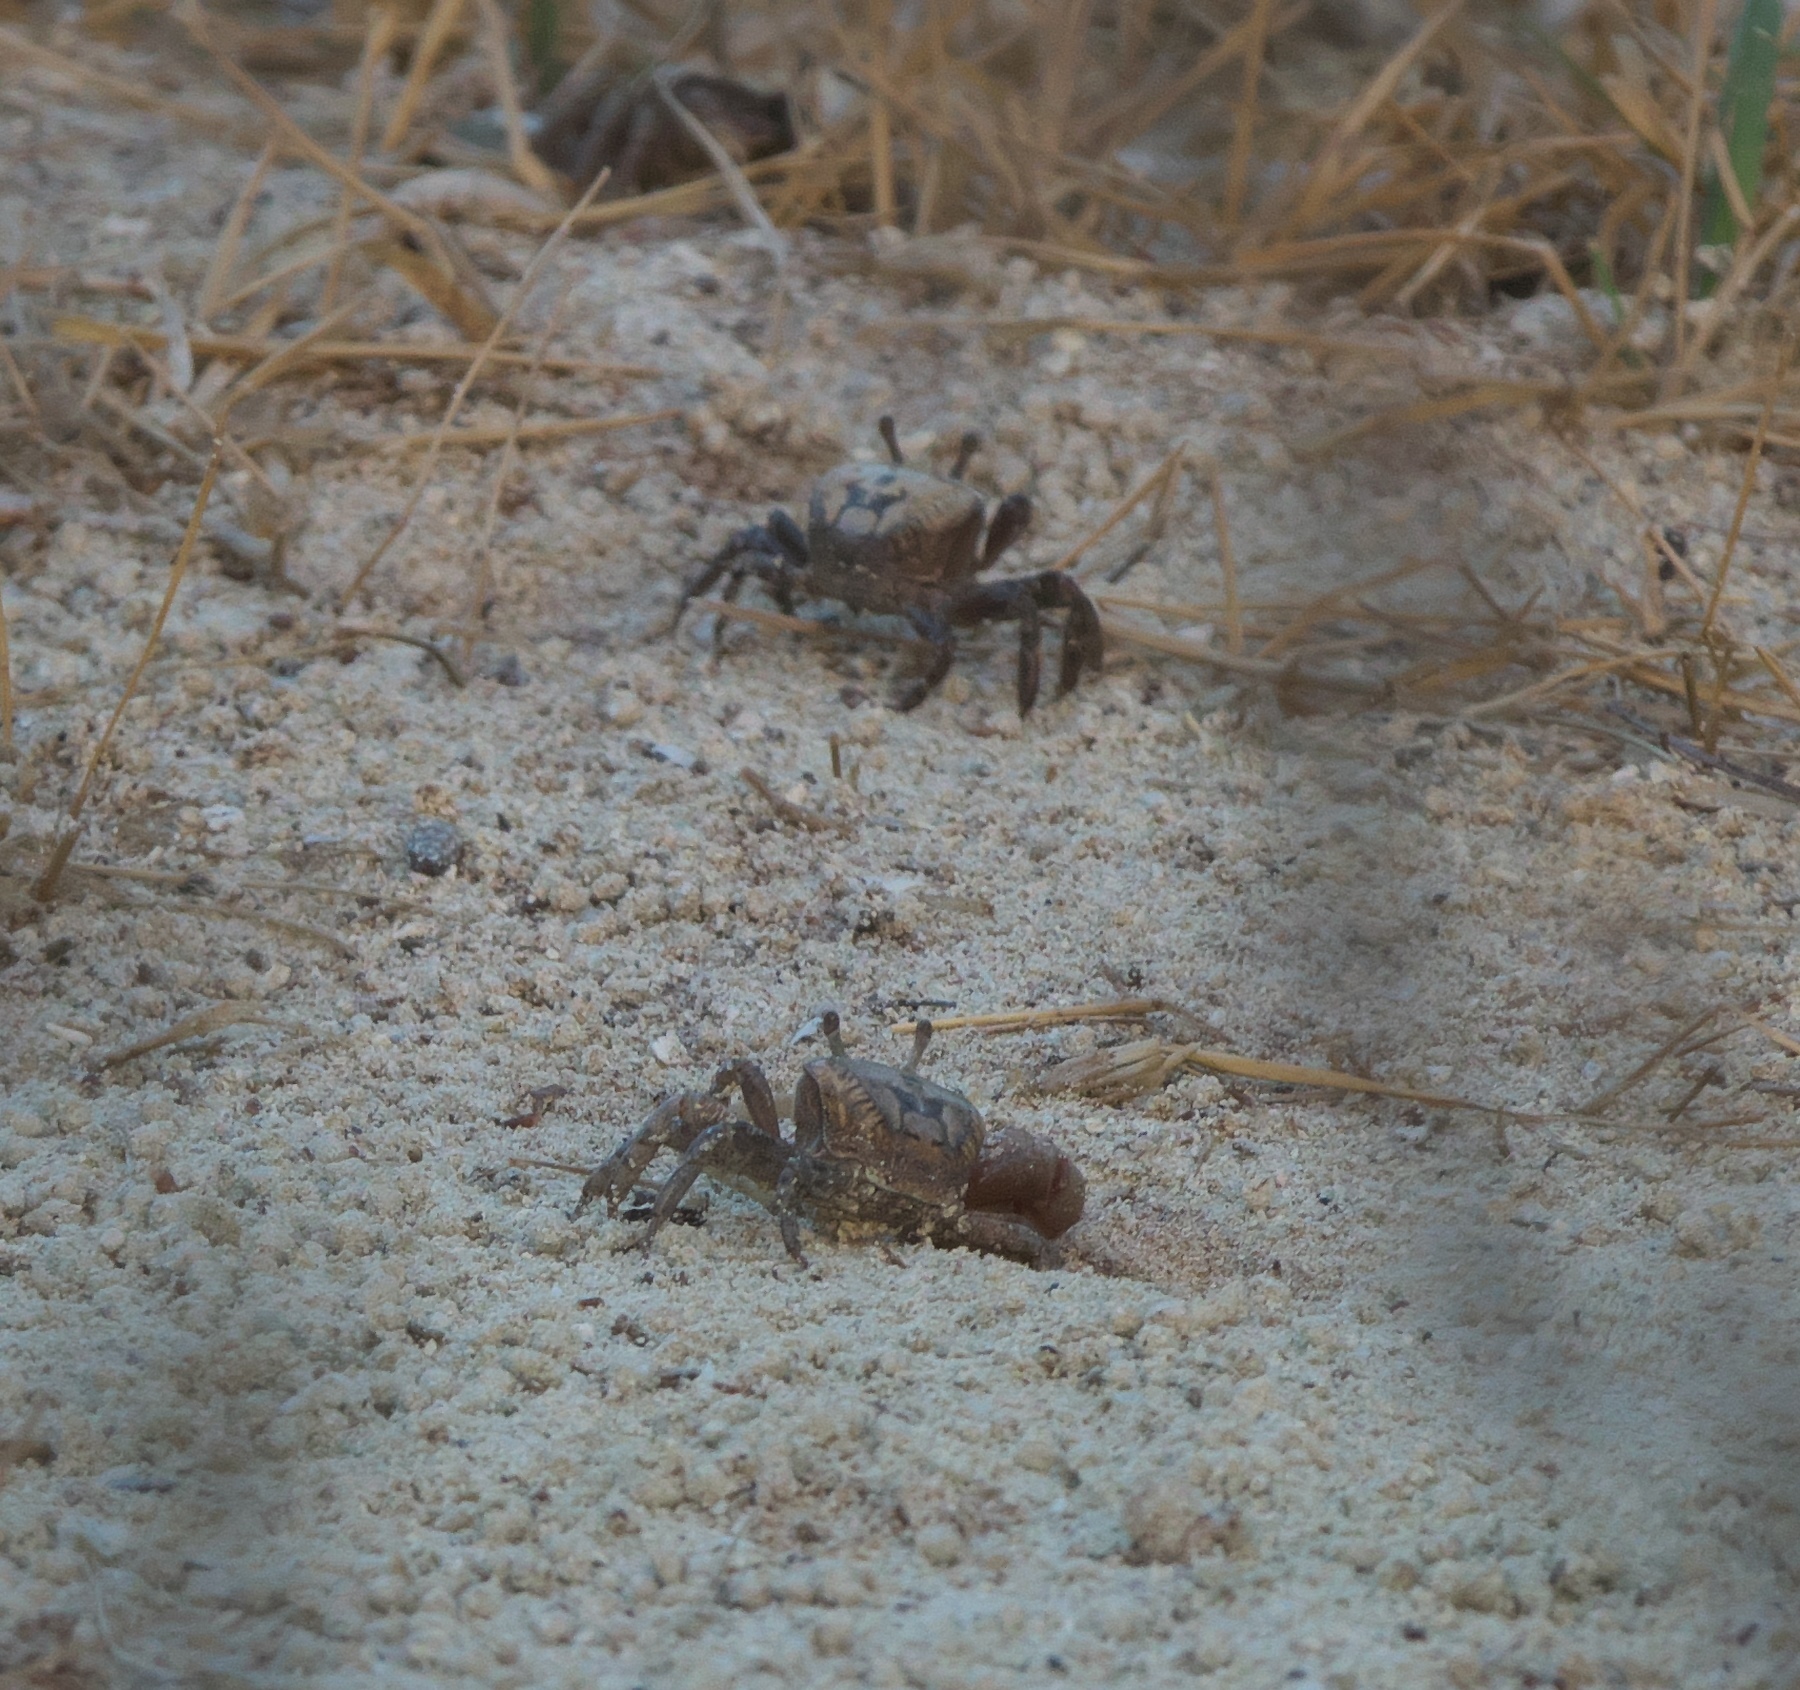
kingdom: Animalia
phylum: Arthropoda
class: Malacostraca
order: Decapoda
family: Ocypodidae
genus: Leptuca
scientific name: Leptuca pugilator
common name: Atlantic sand fiddler crab
